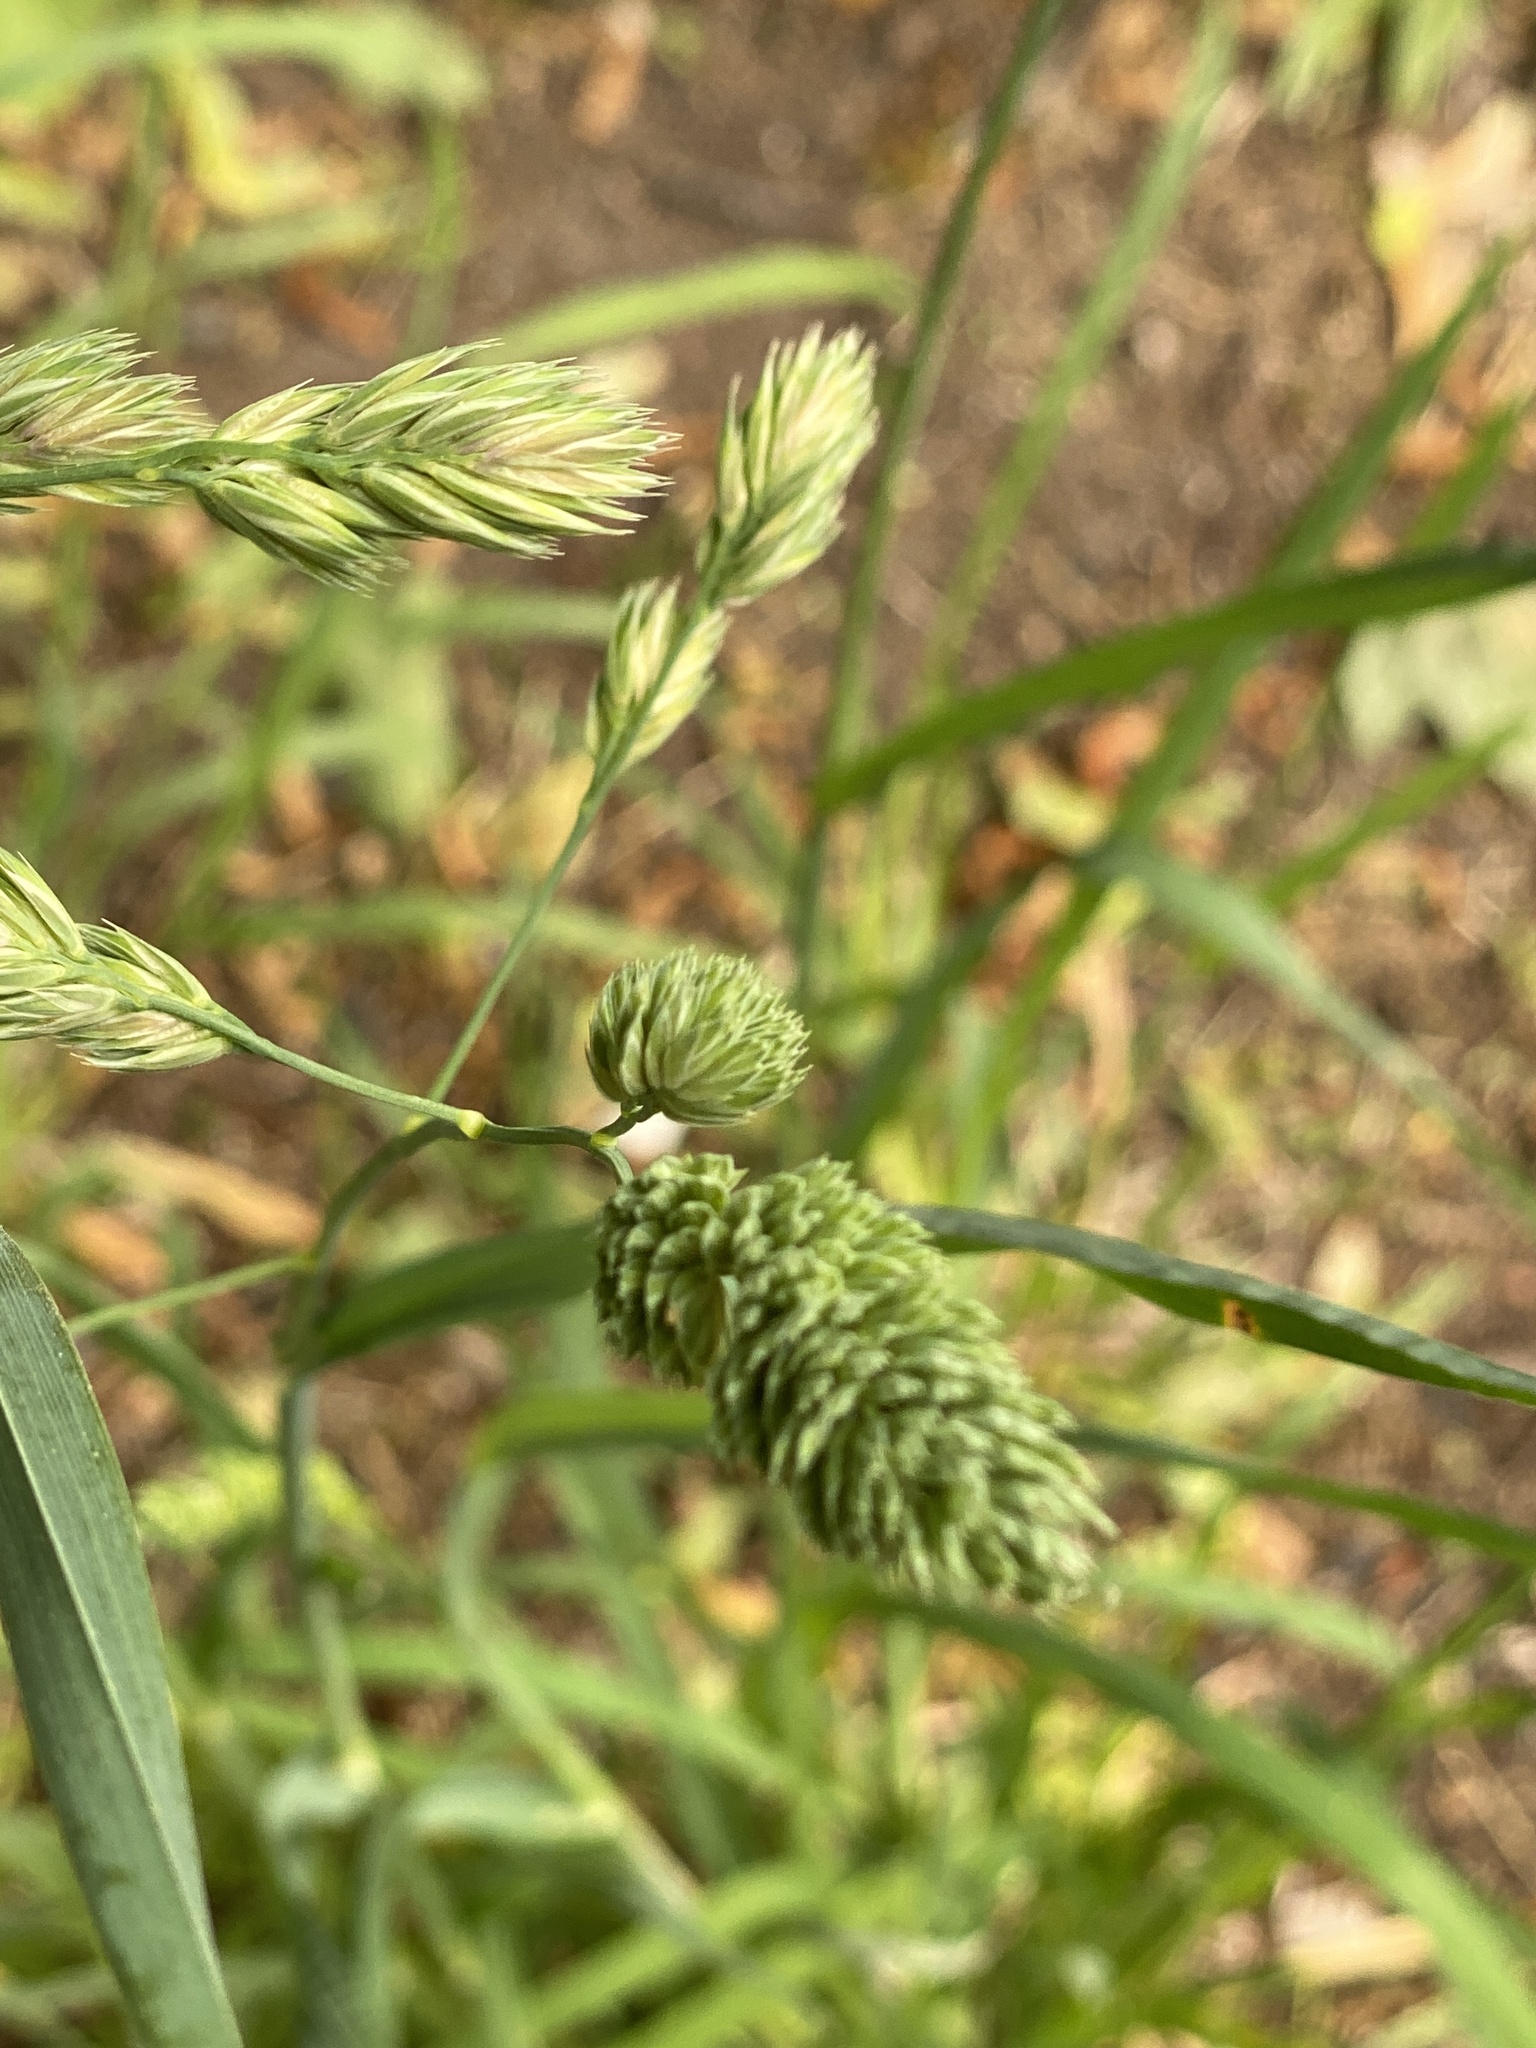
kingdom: Plantae
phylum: Tracheophyta
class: Liliopsida
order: Poales
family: Poaceae
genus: Dactylis
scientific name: Dactylis glomerata
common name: Orchardgrass
